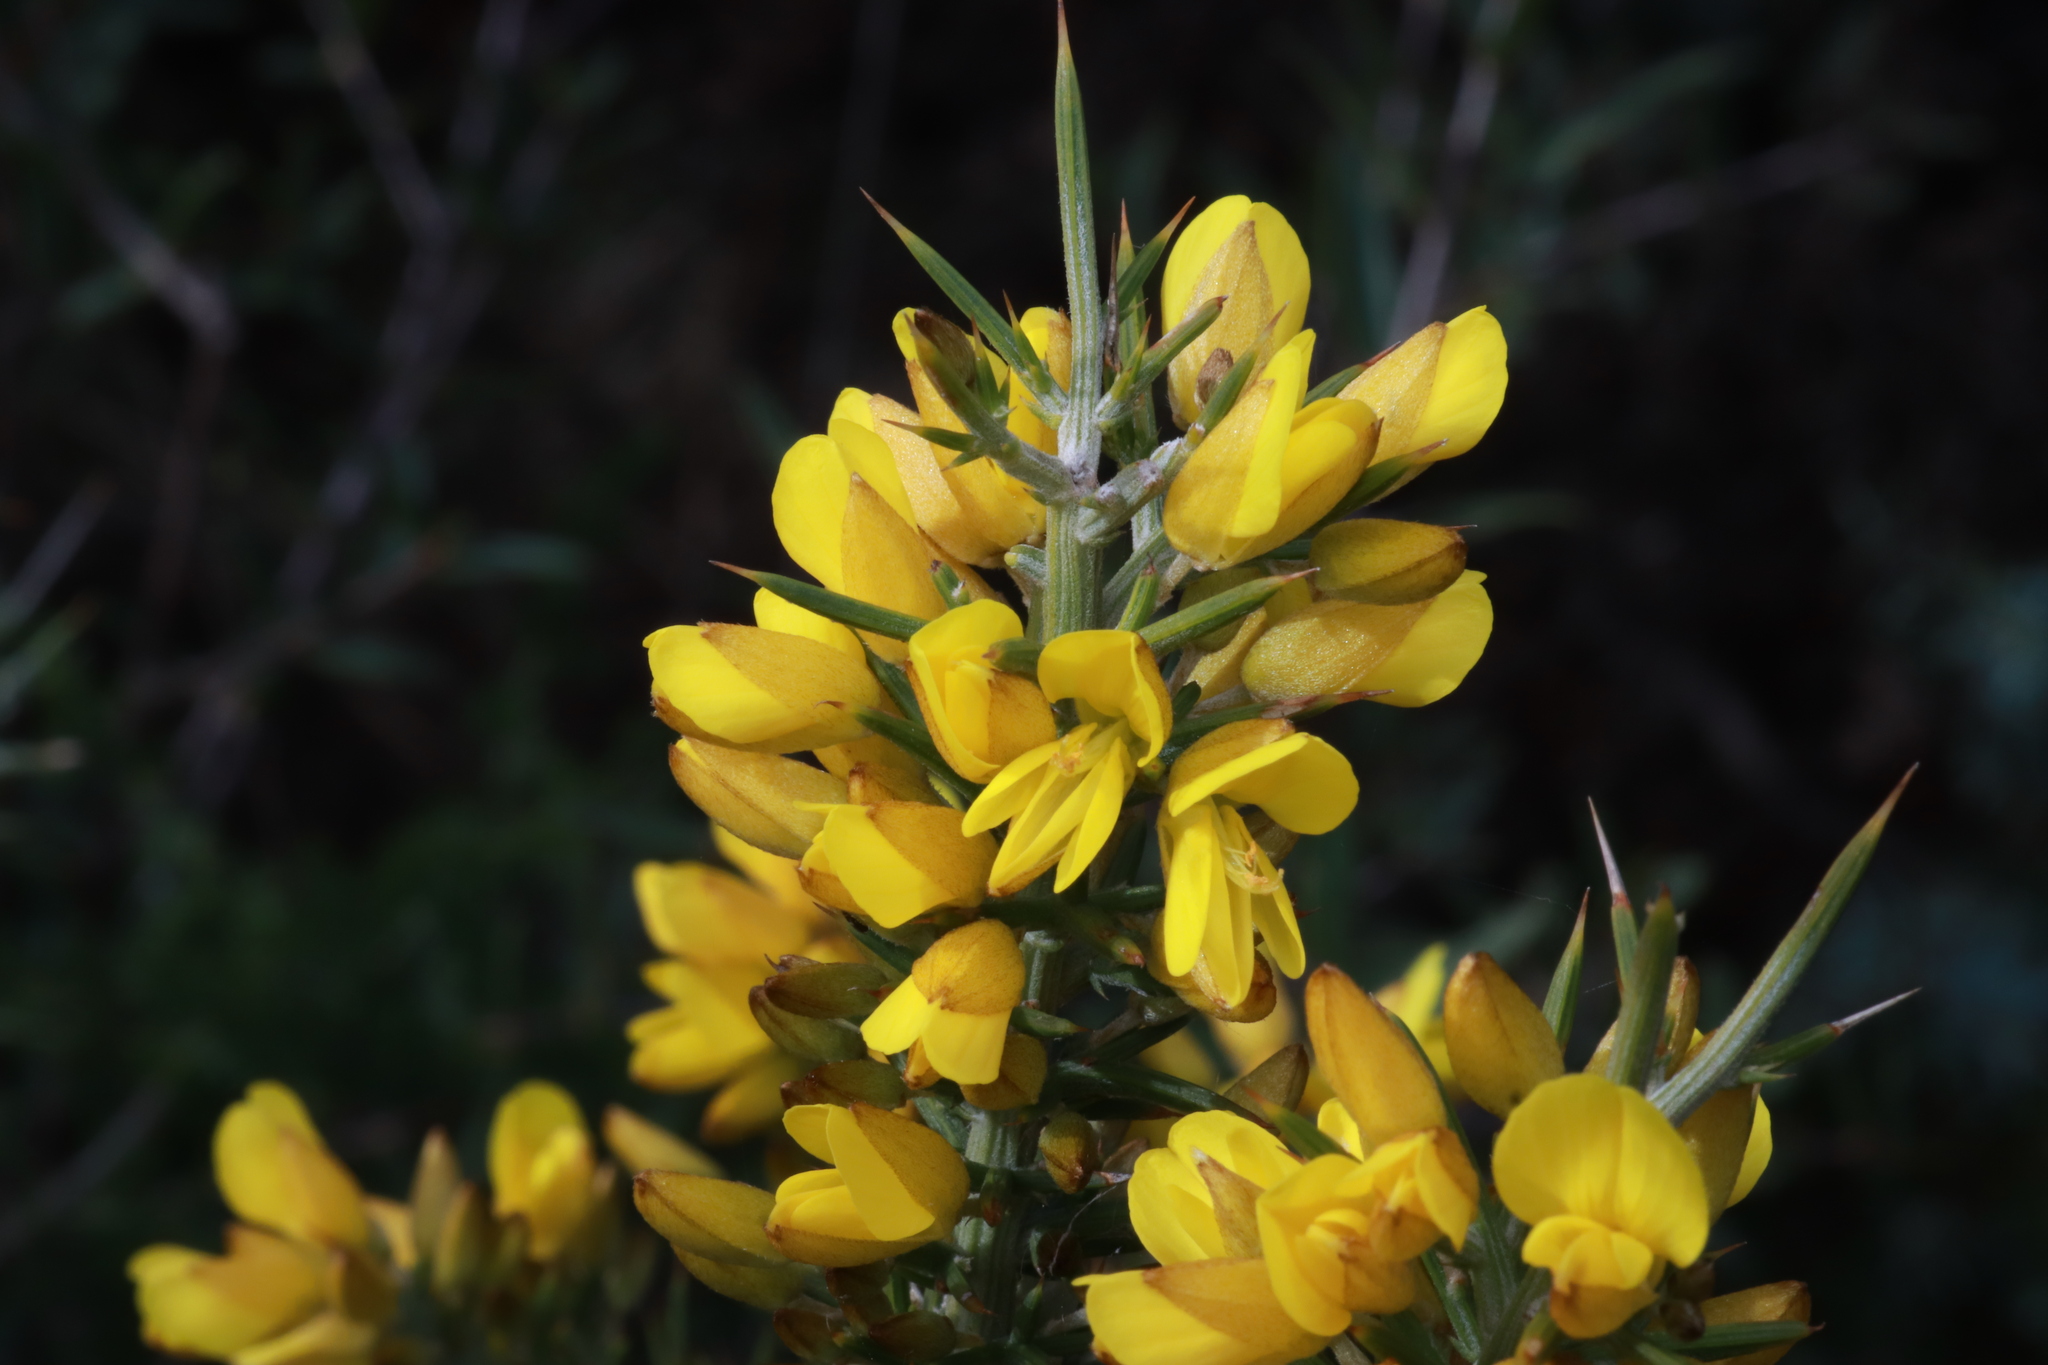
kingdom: Plantae
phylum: Tracheophyta
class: Magnoliopsida
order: Fabales
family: Fabaceae
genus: Ulex
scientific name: Ulex parviflorus
